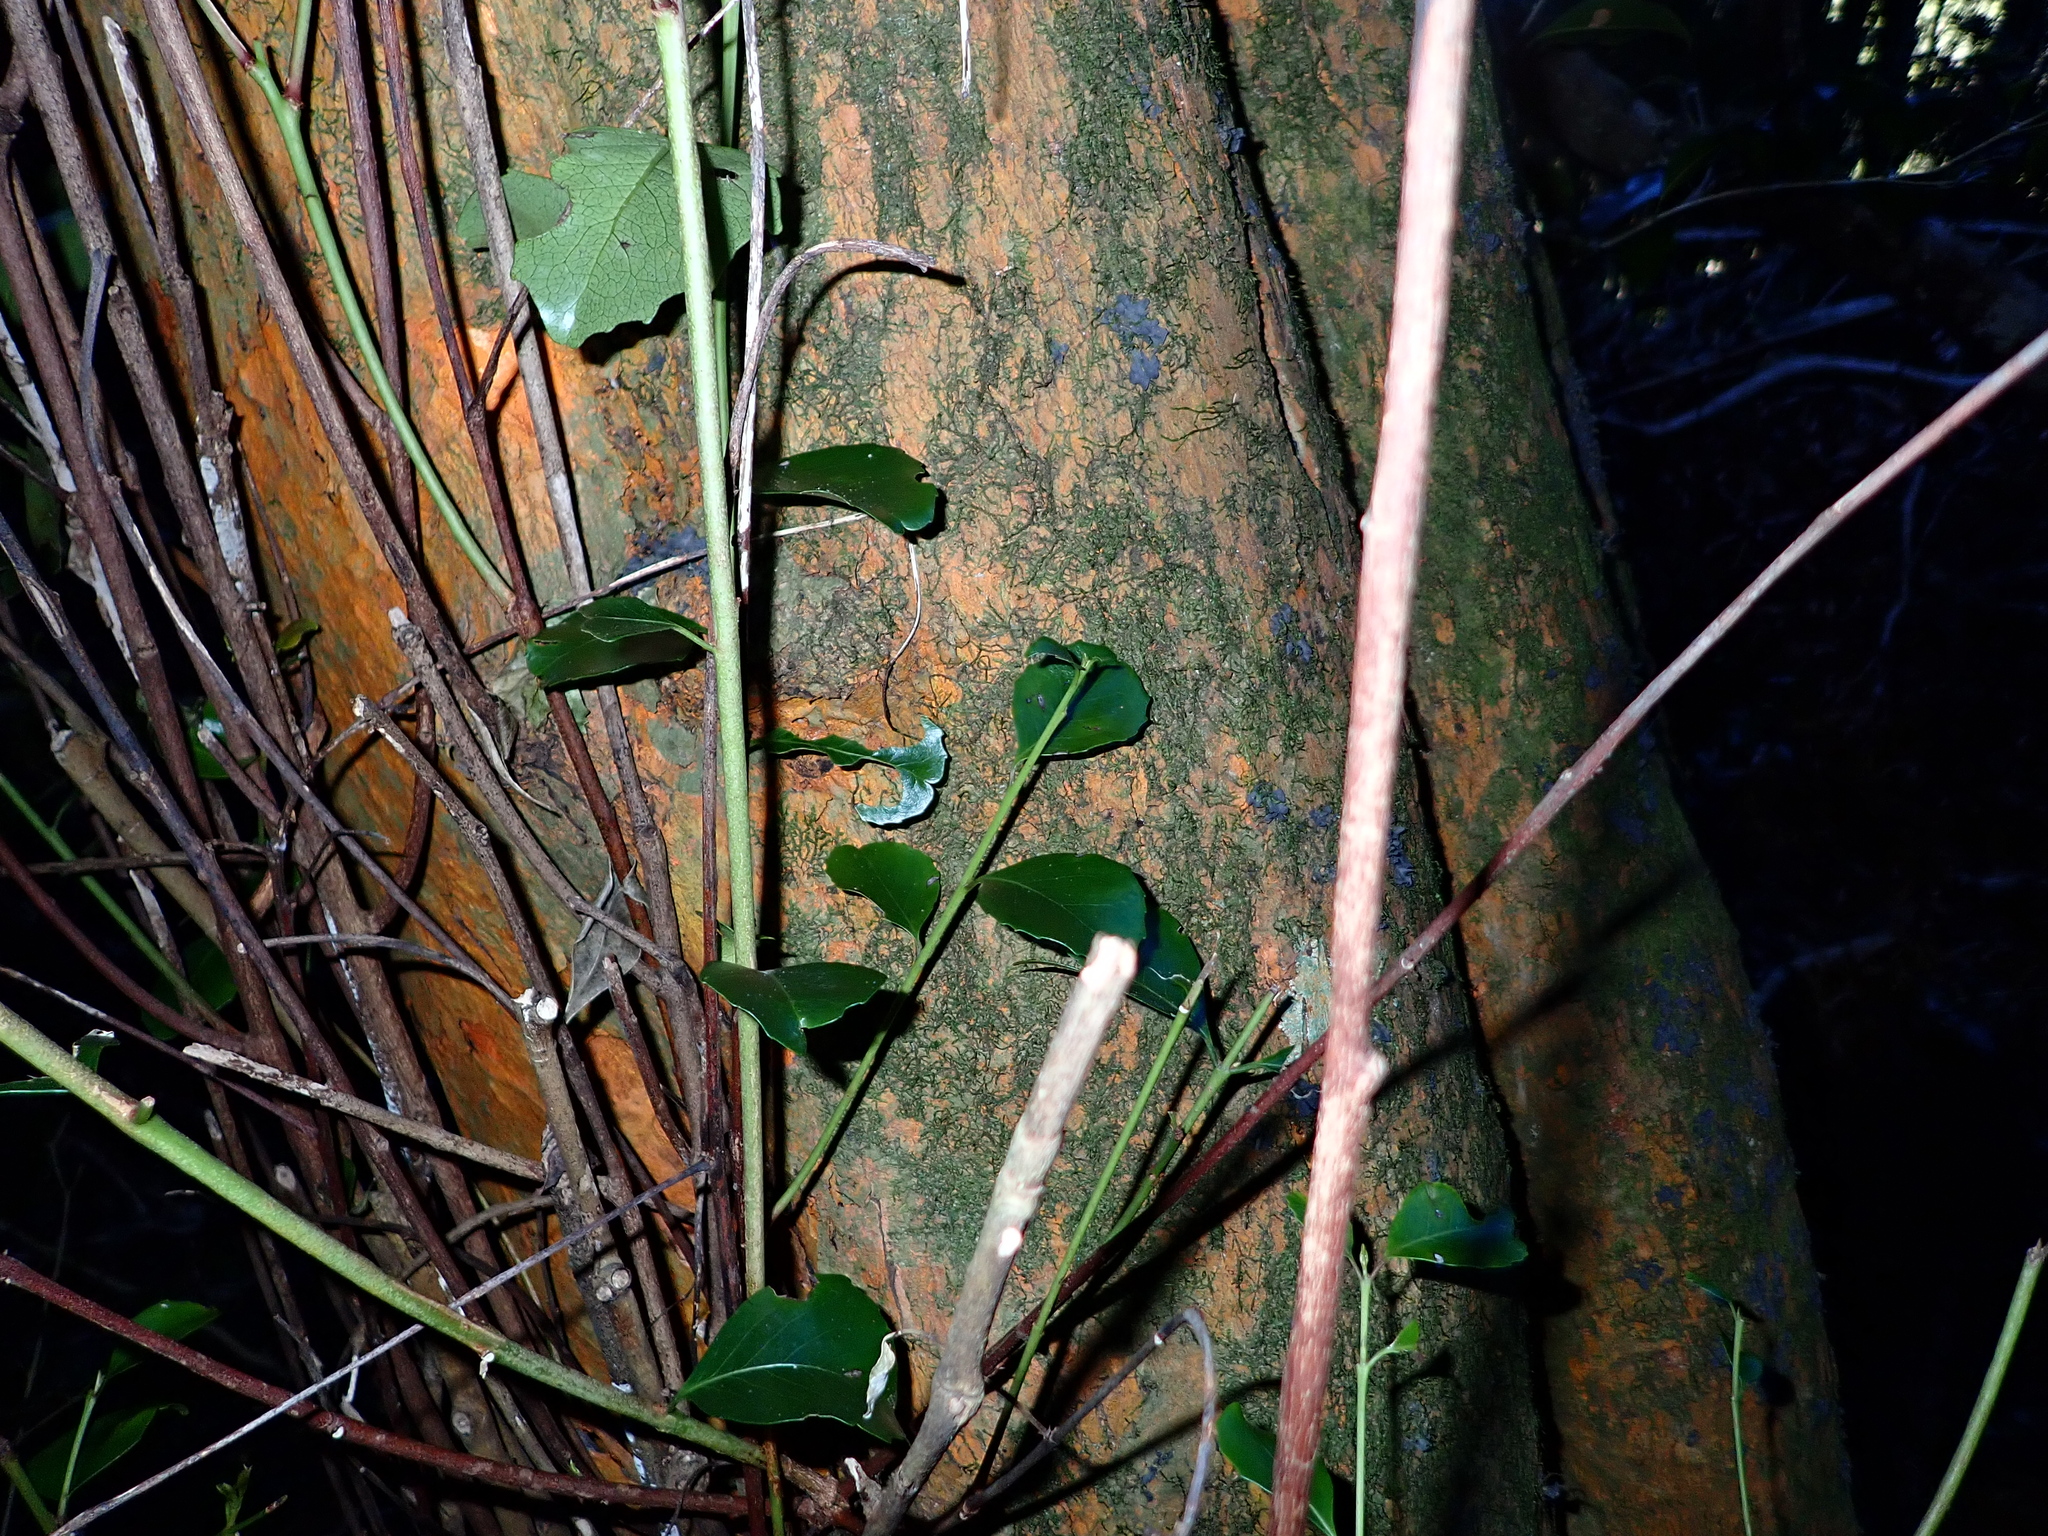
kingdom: Plantae
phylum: Tracheophyta
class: Magnoliopsida
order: Celastrales
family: Celastraceae
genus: Cassine
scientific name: Cassine peragua
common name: Cape saffron
